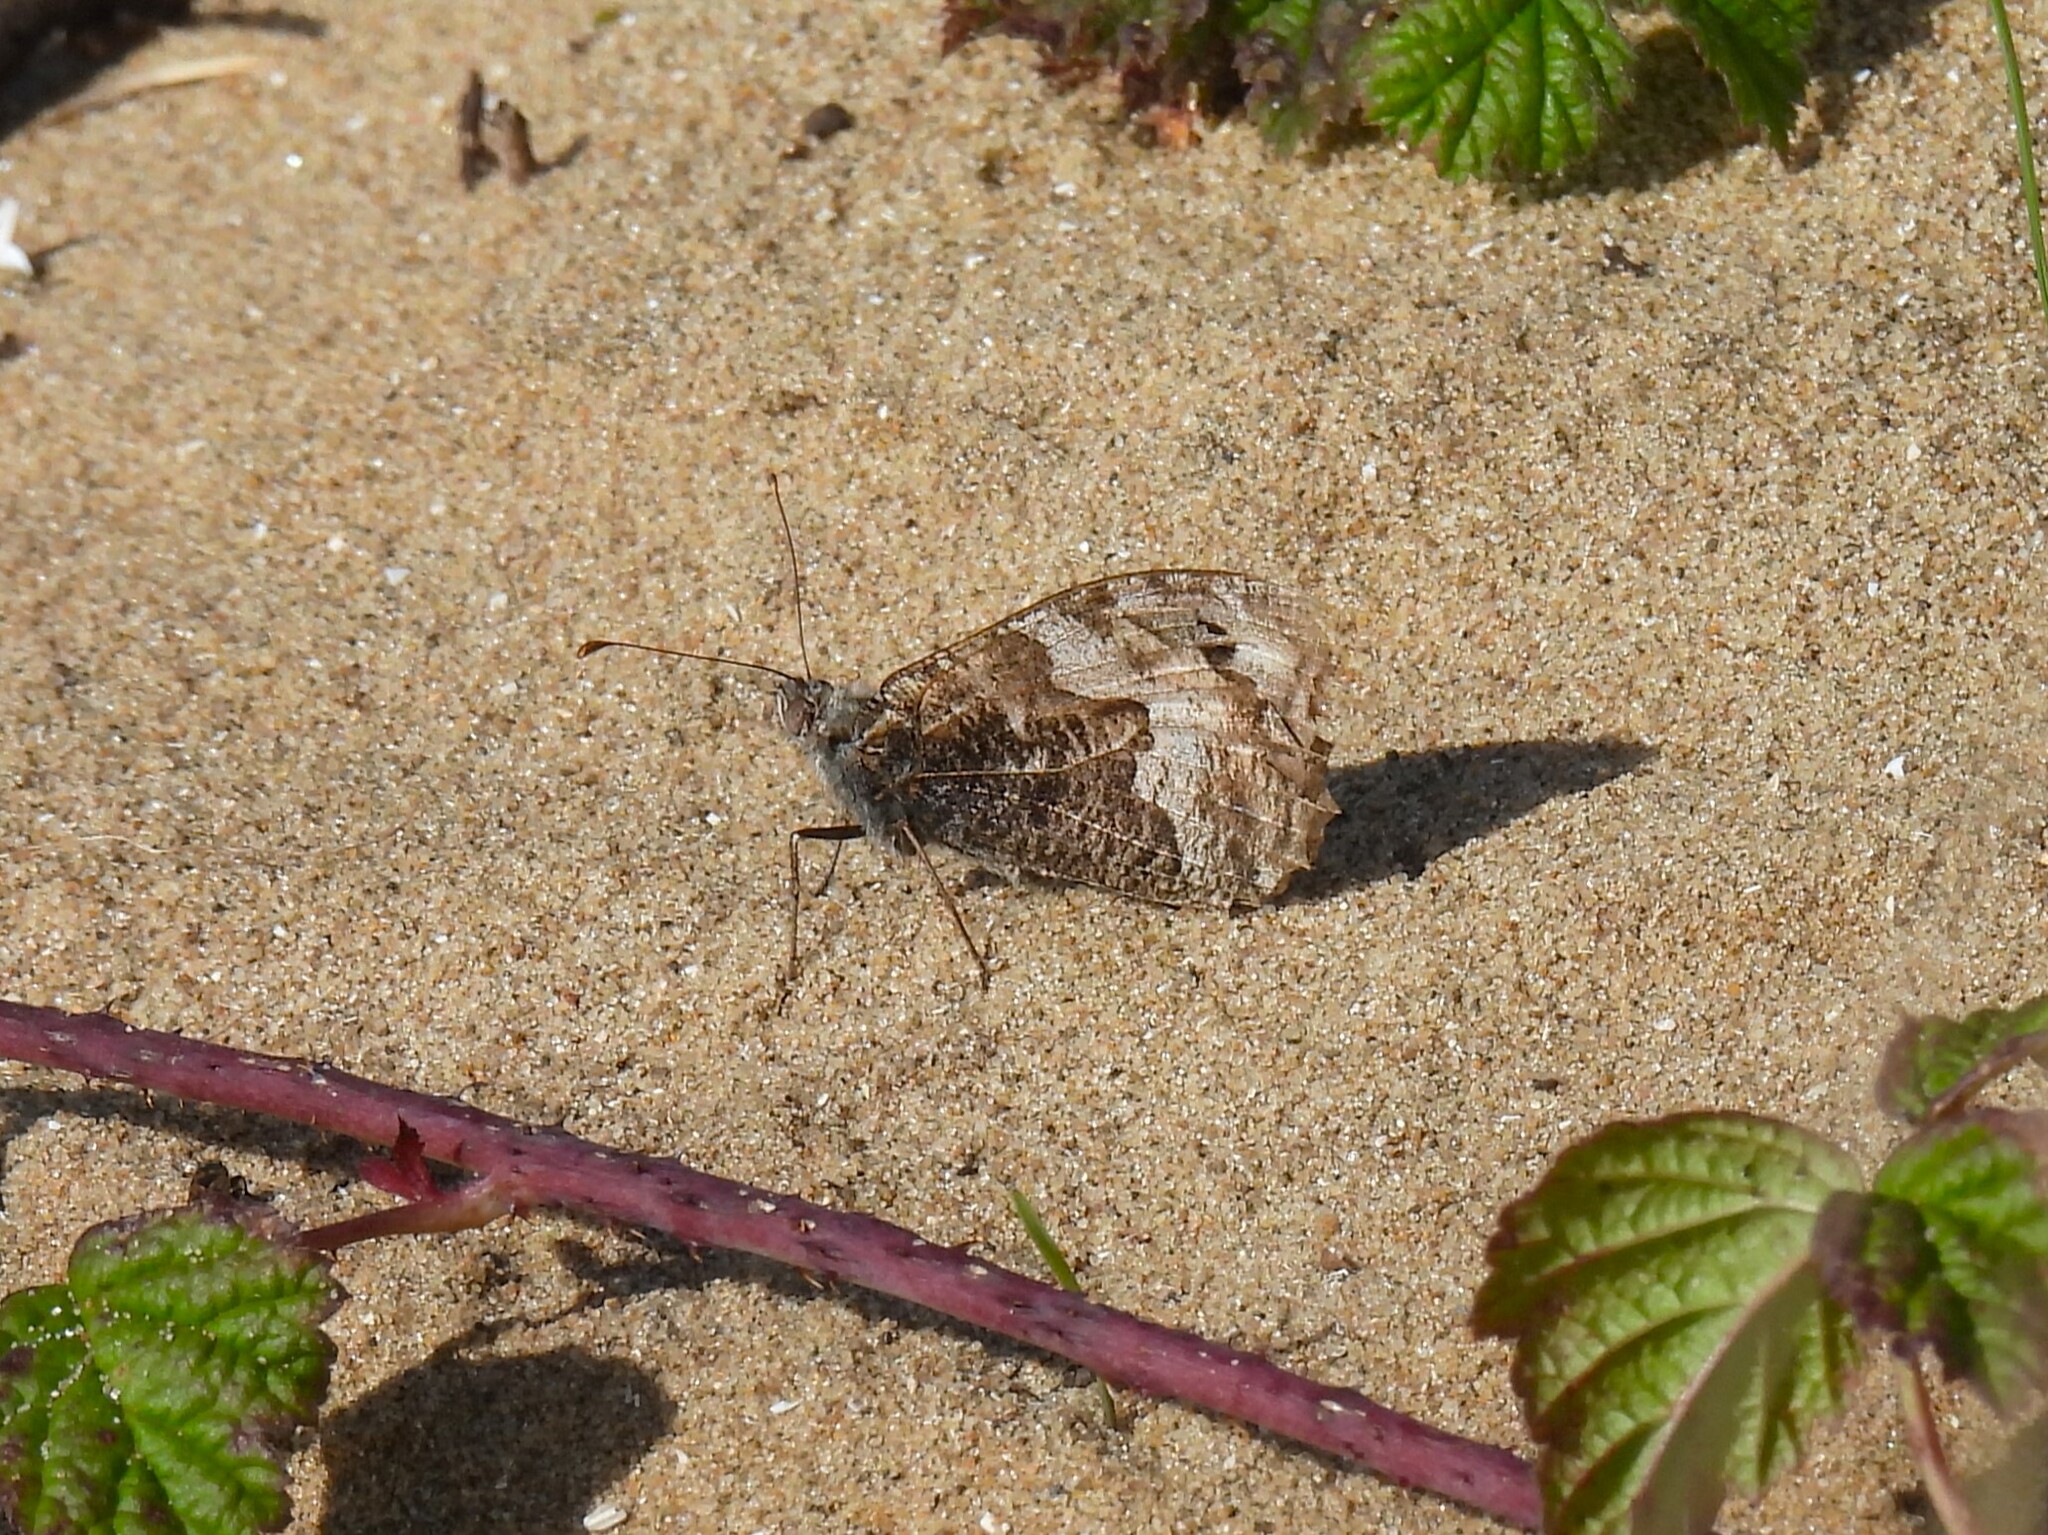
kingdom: Animalia
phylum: Arthropoda
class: Insecta
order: Lepidoptera
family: Nymphalidae
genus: Hipparchia
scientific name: Hipparchia semele
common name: Grayling
